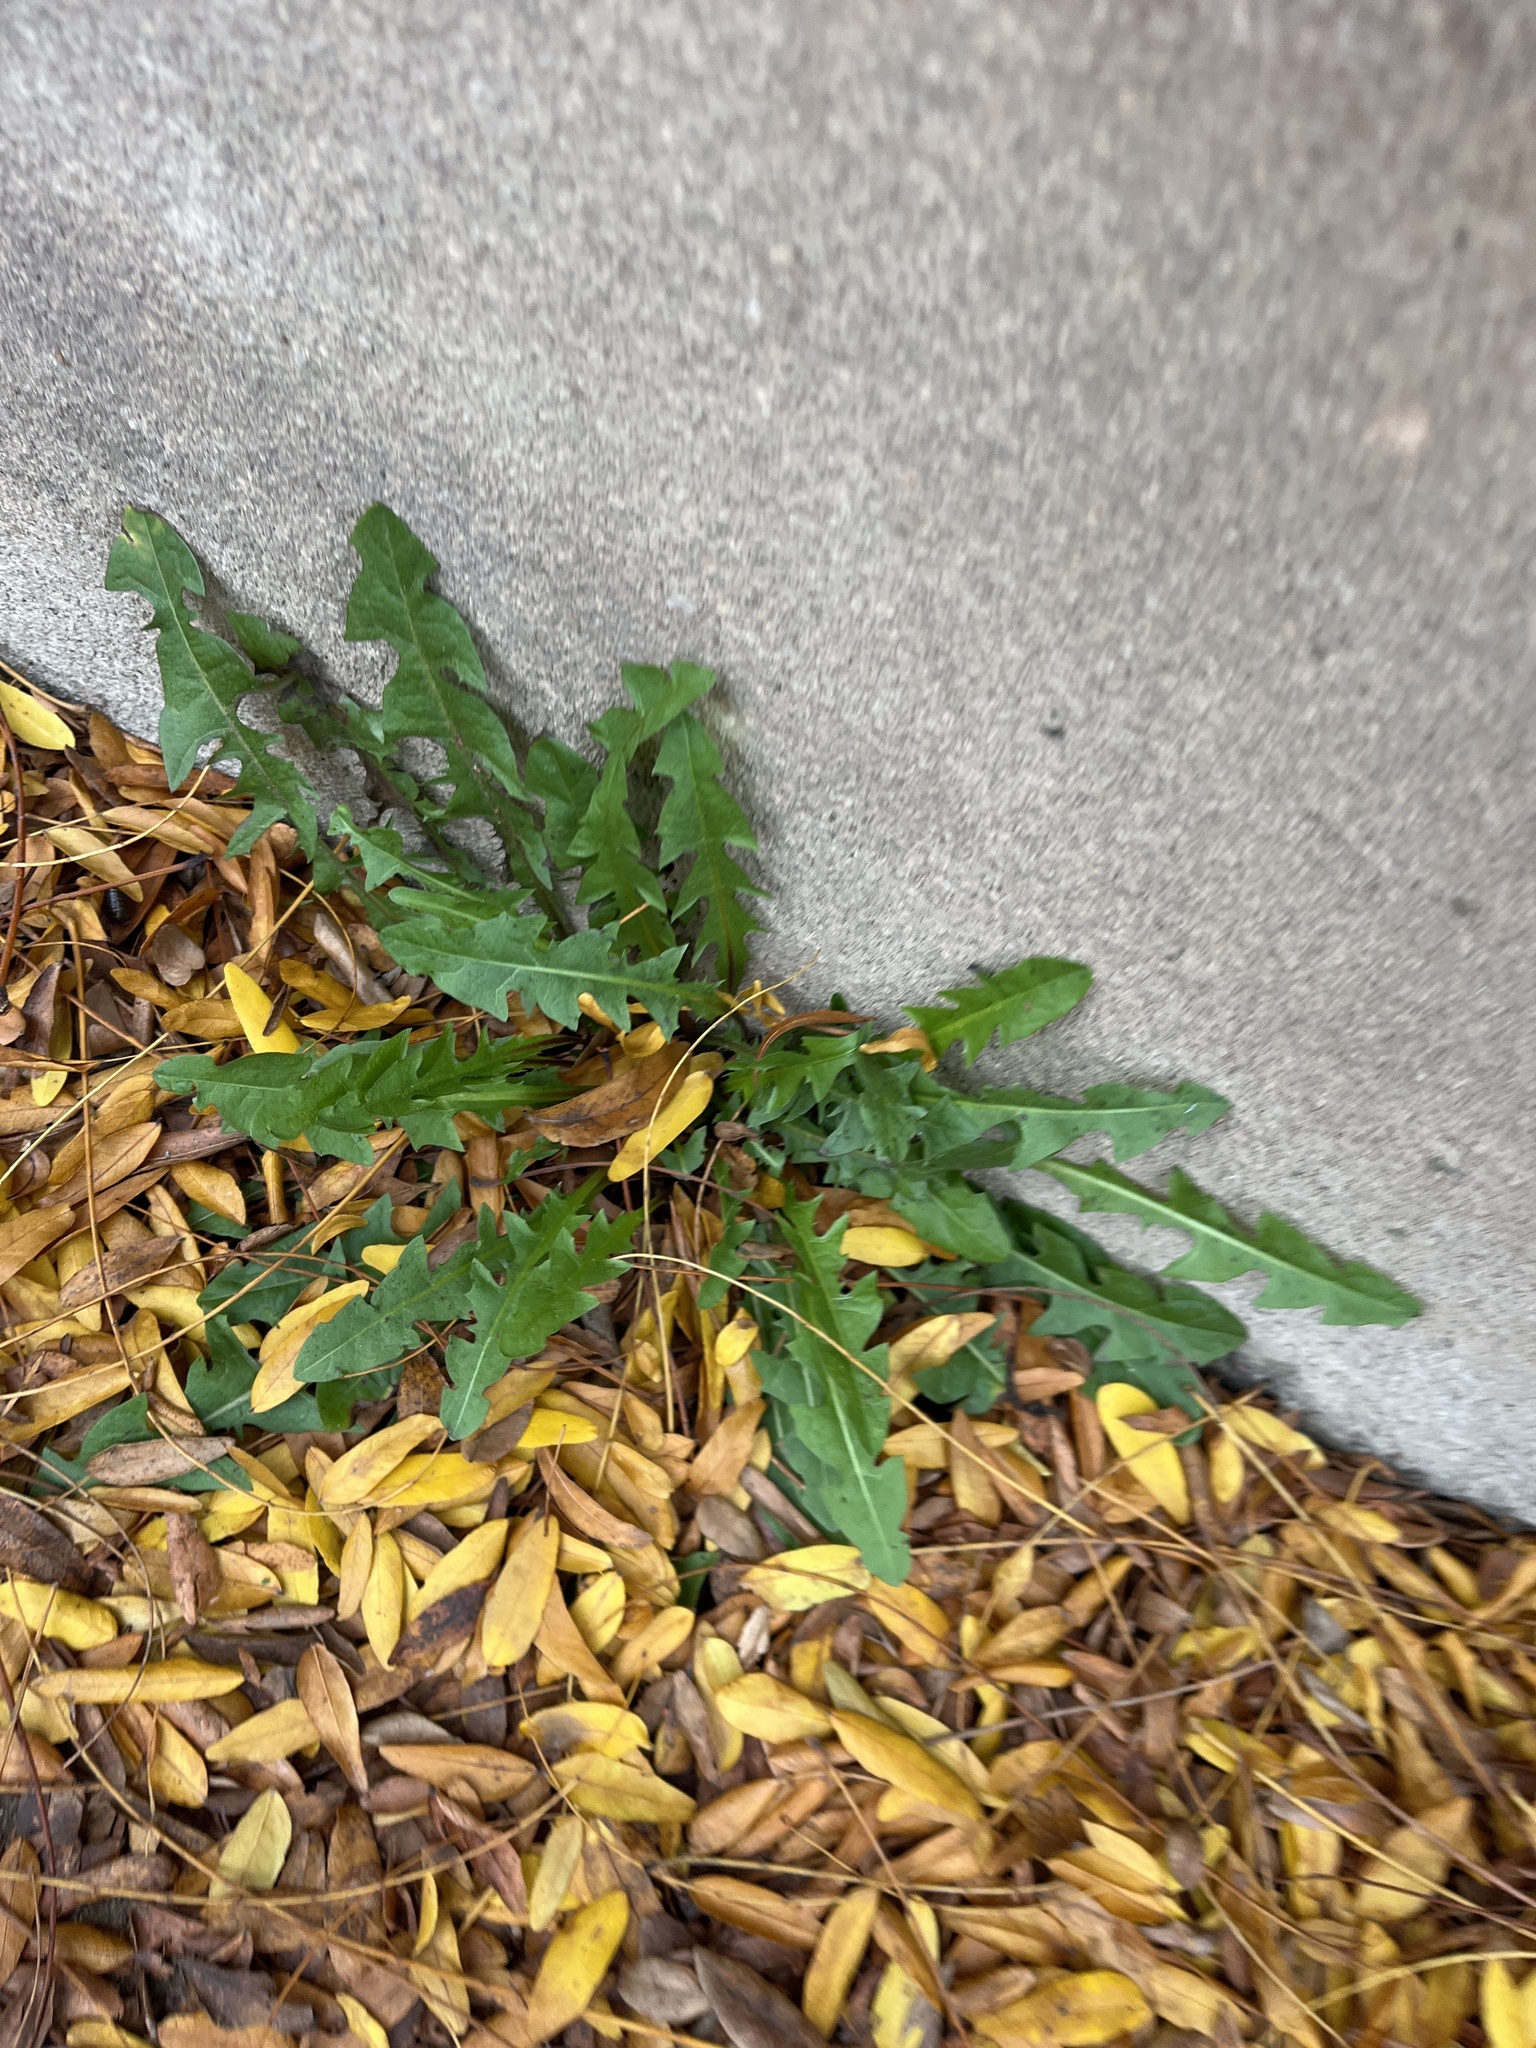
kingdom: Plantae
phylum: Tracheophyta
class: Magnoliopsida
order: Asterales
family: Asteraceae
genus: Taraxacum
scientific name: Taraxacum officinale
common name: Common dandelion
